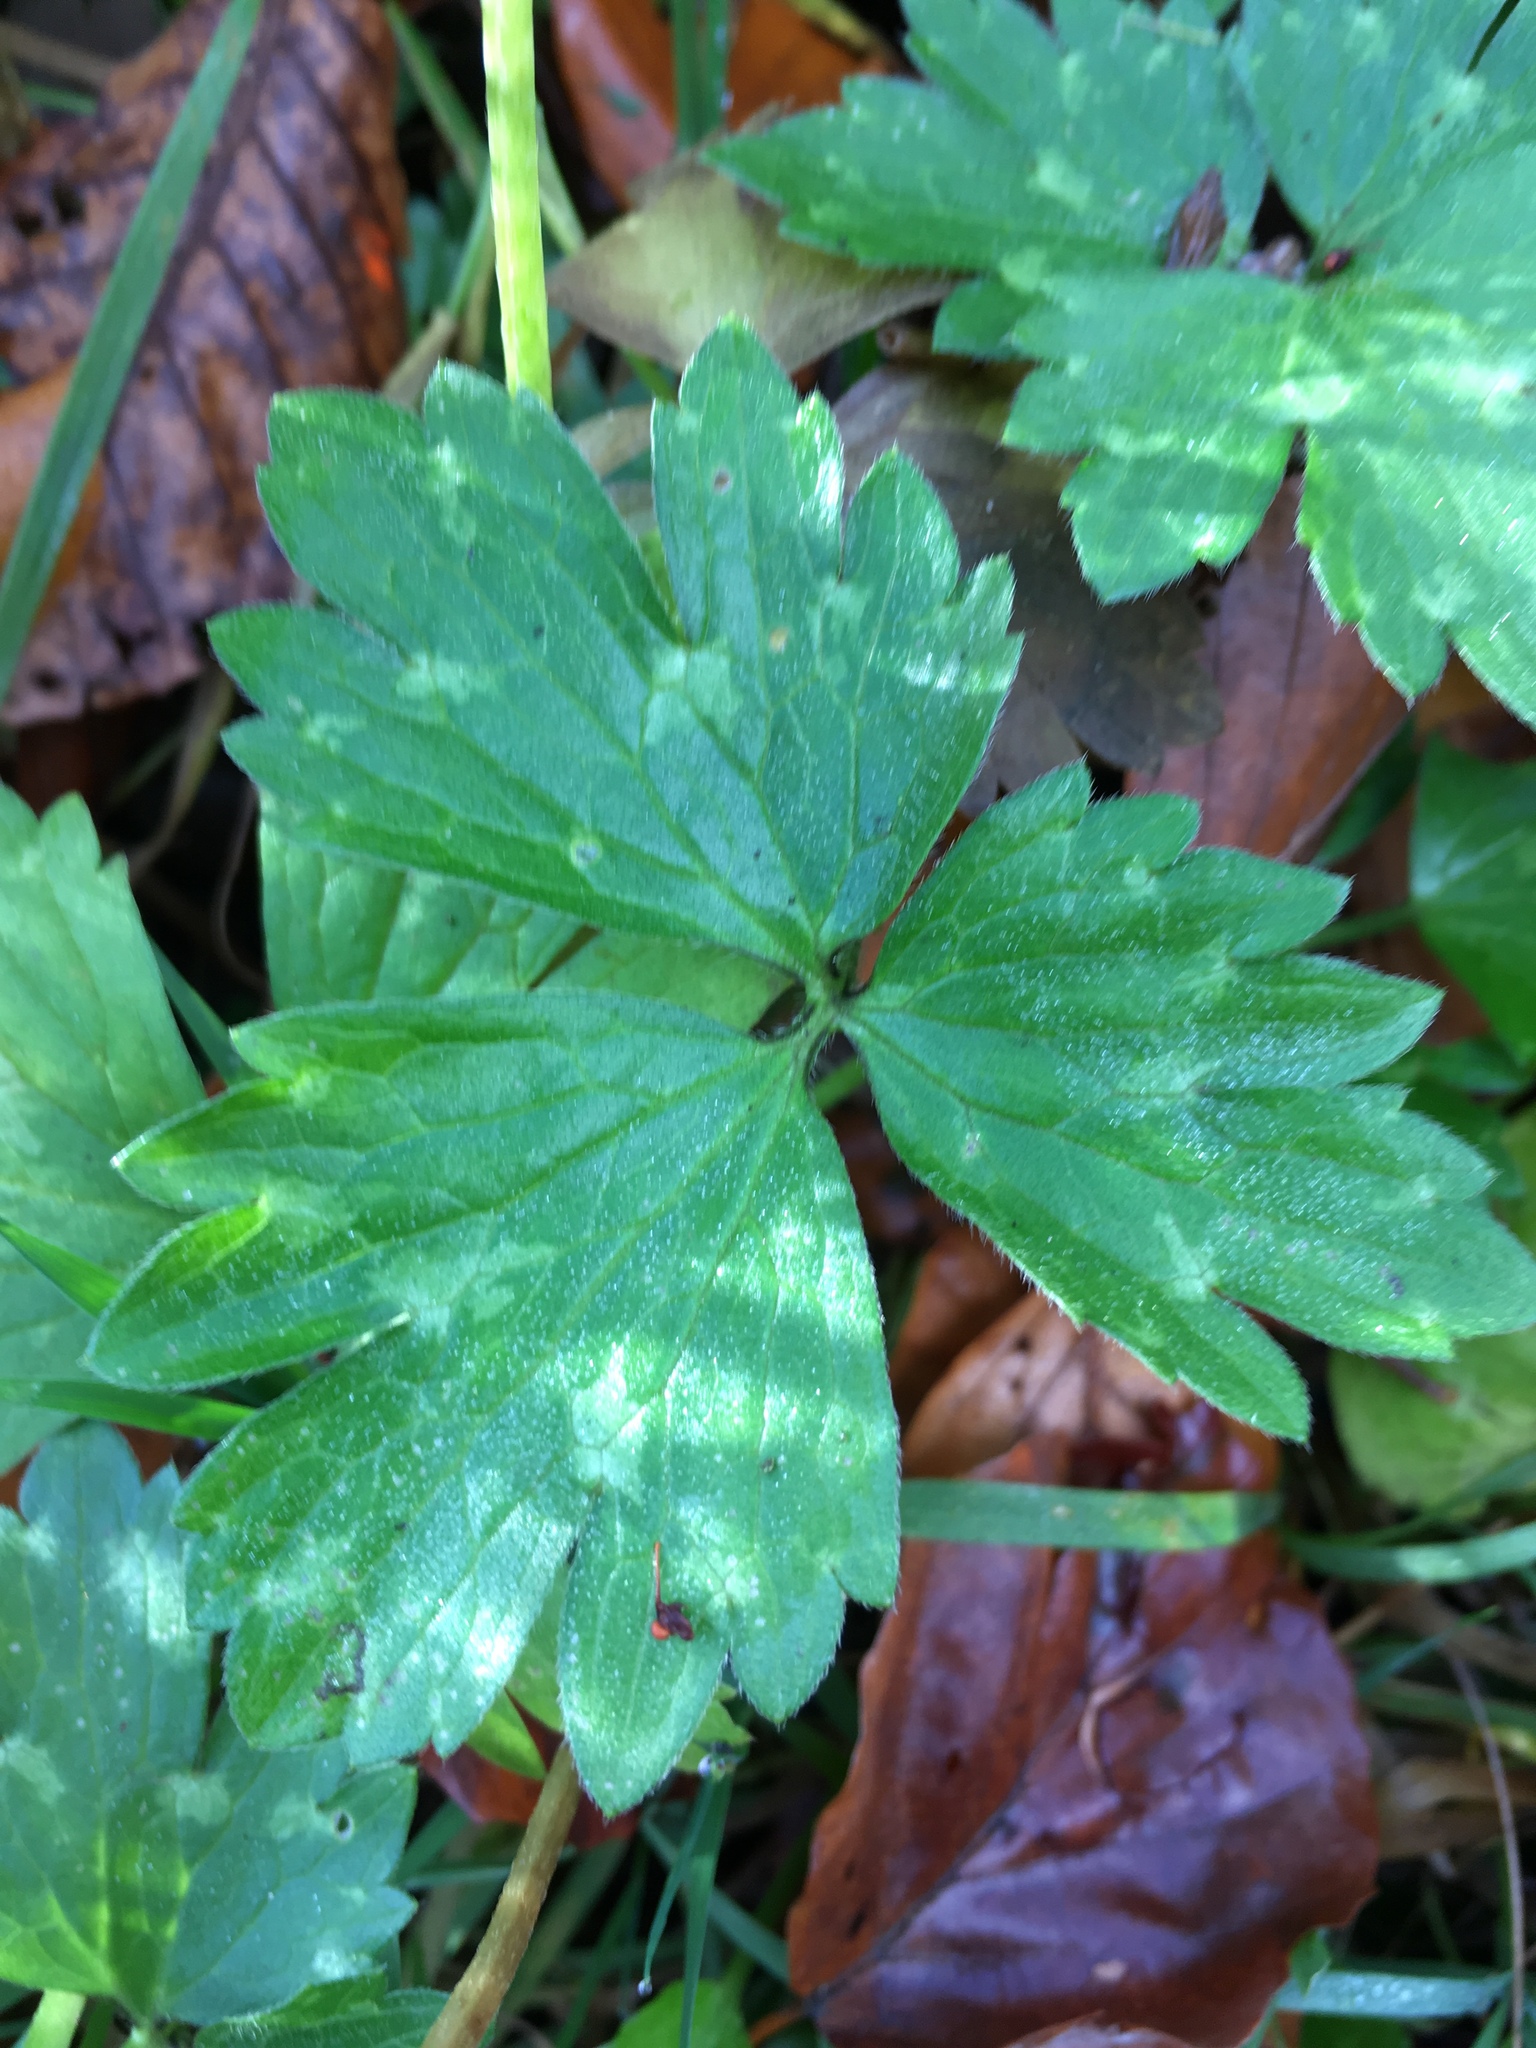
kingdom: Plantae
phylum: Tracheophyta
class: Magnoliopsida
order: Ranunculales
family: Ranunculaceae
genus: Ranunculus
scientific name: Ranunculus repens
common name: Creeping buttercup
